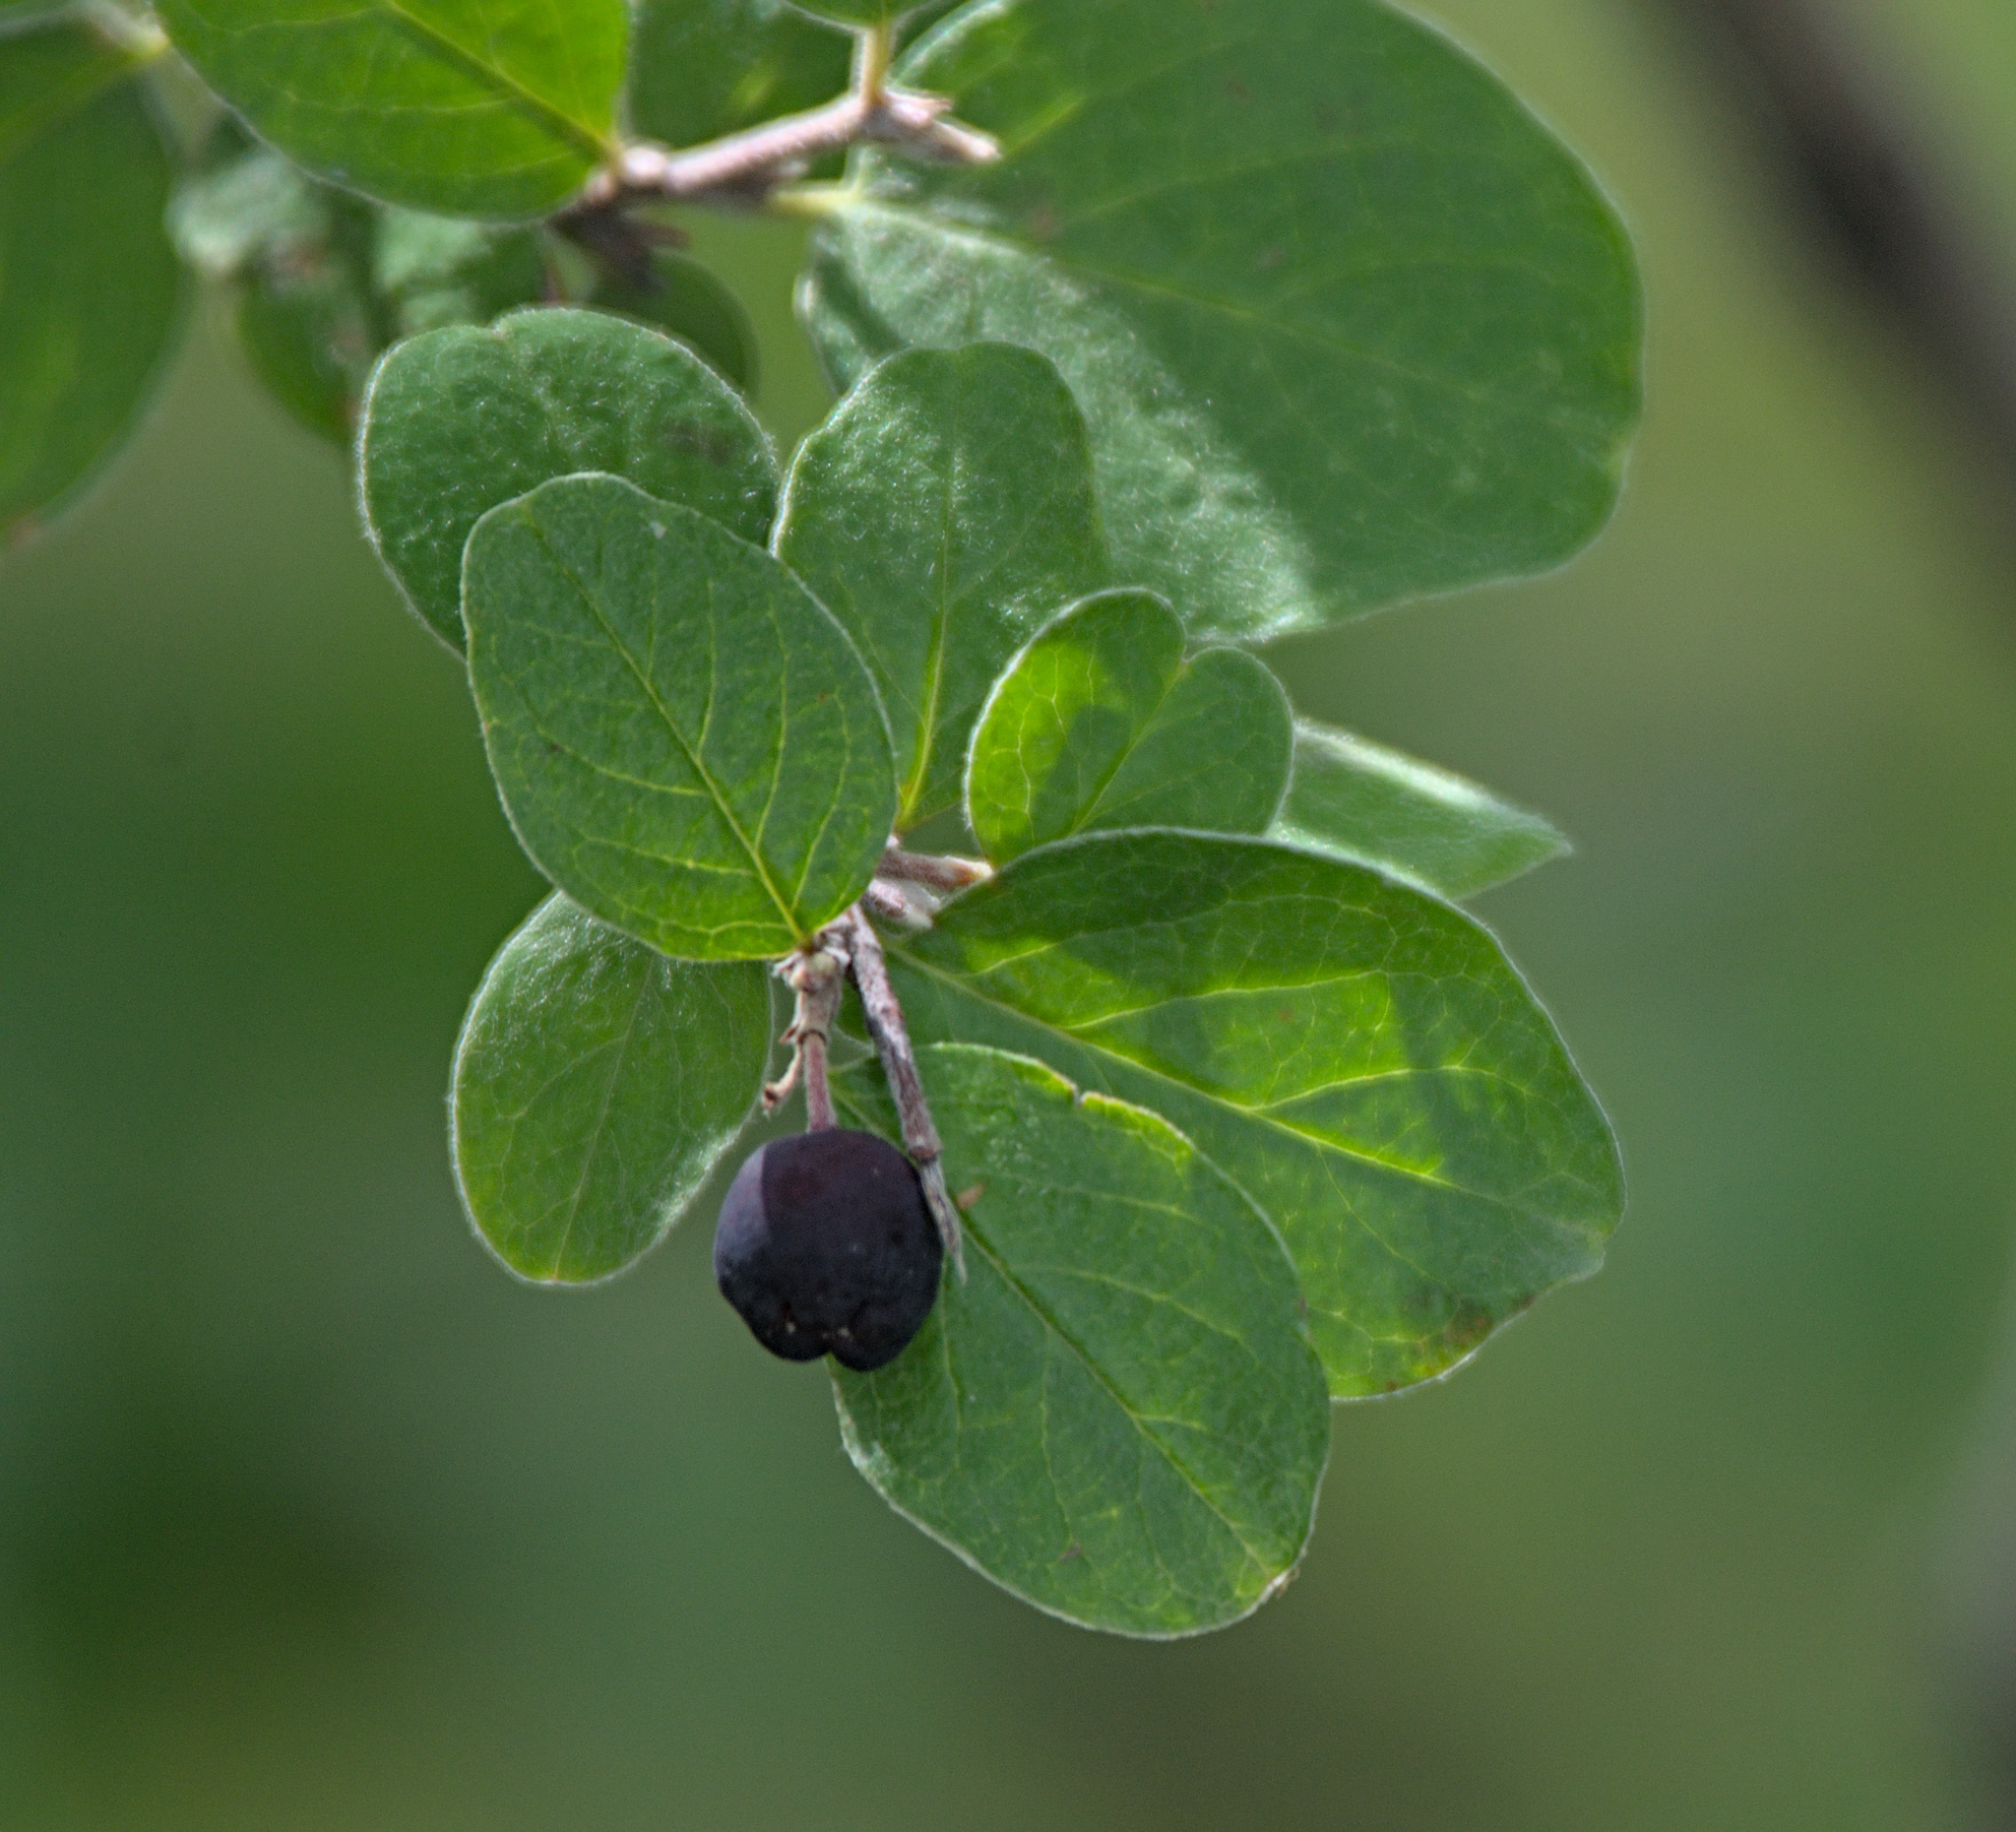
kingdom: Plantae
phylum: Tracheophyta
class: Magnoliopsida
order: Rosales
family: Rosaceae
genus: Cotoneaster
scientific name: Cotoneaster melanocarpus
